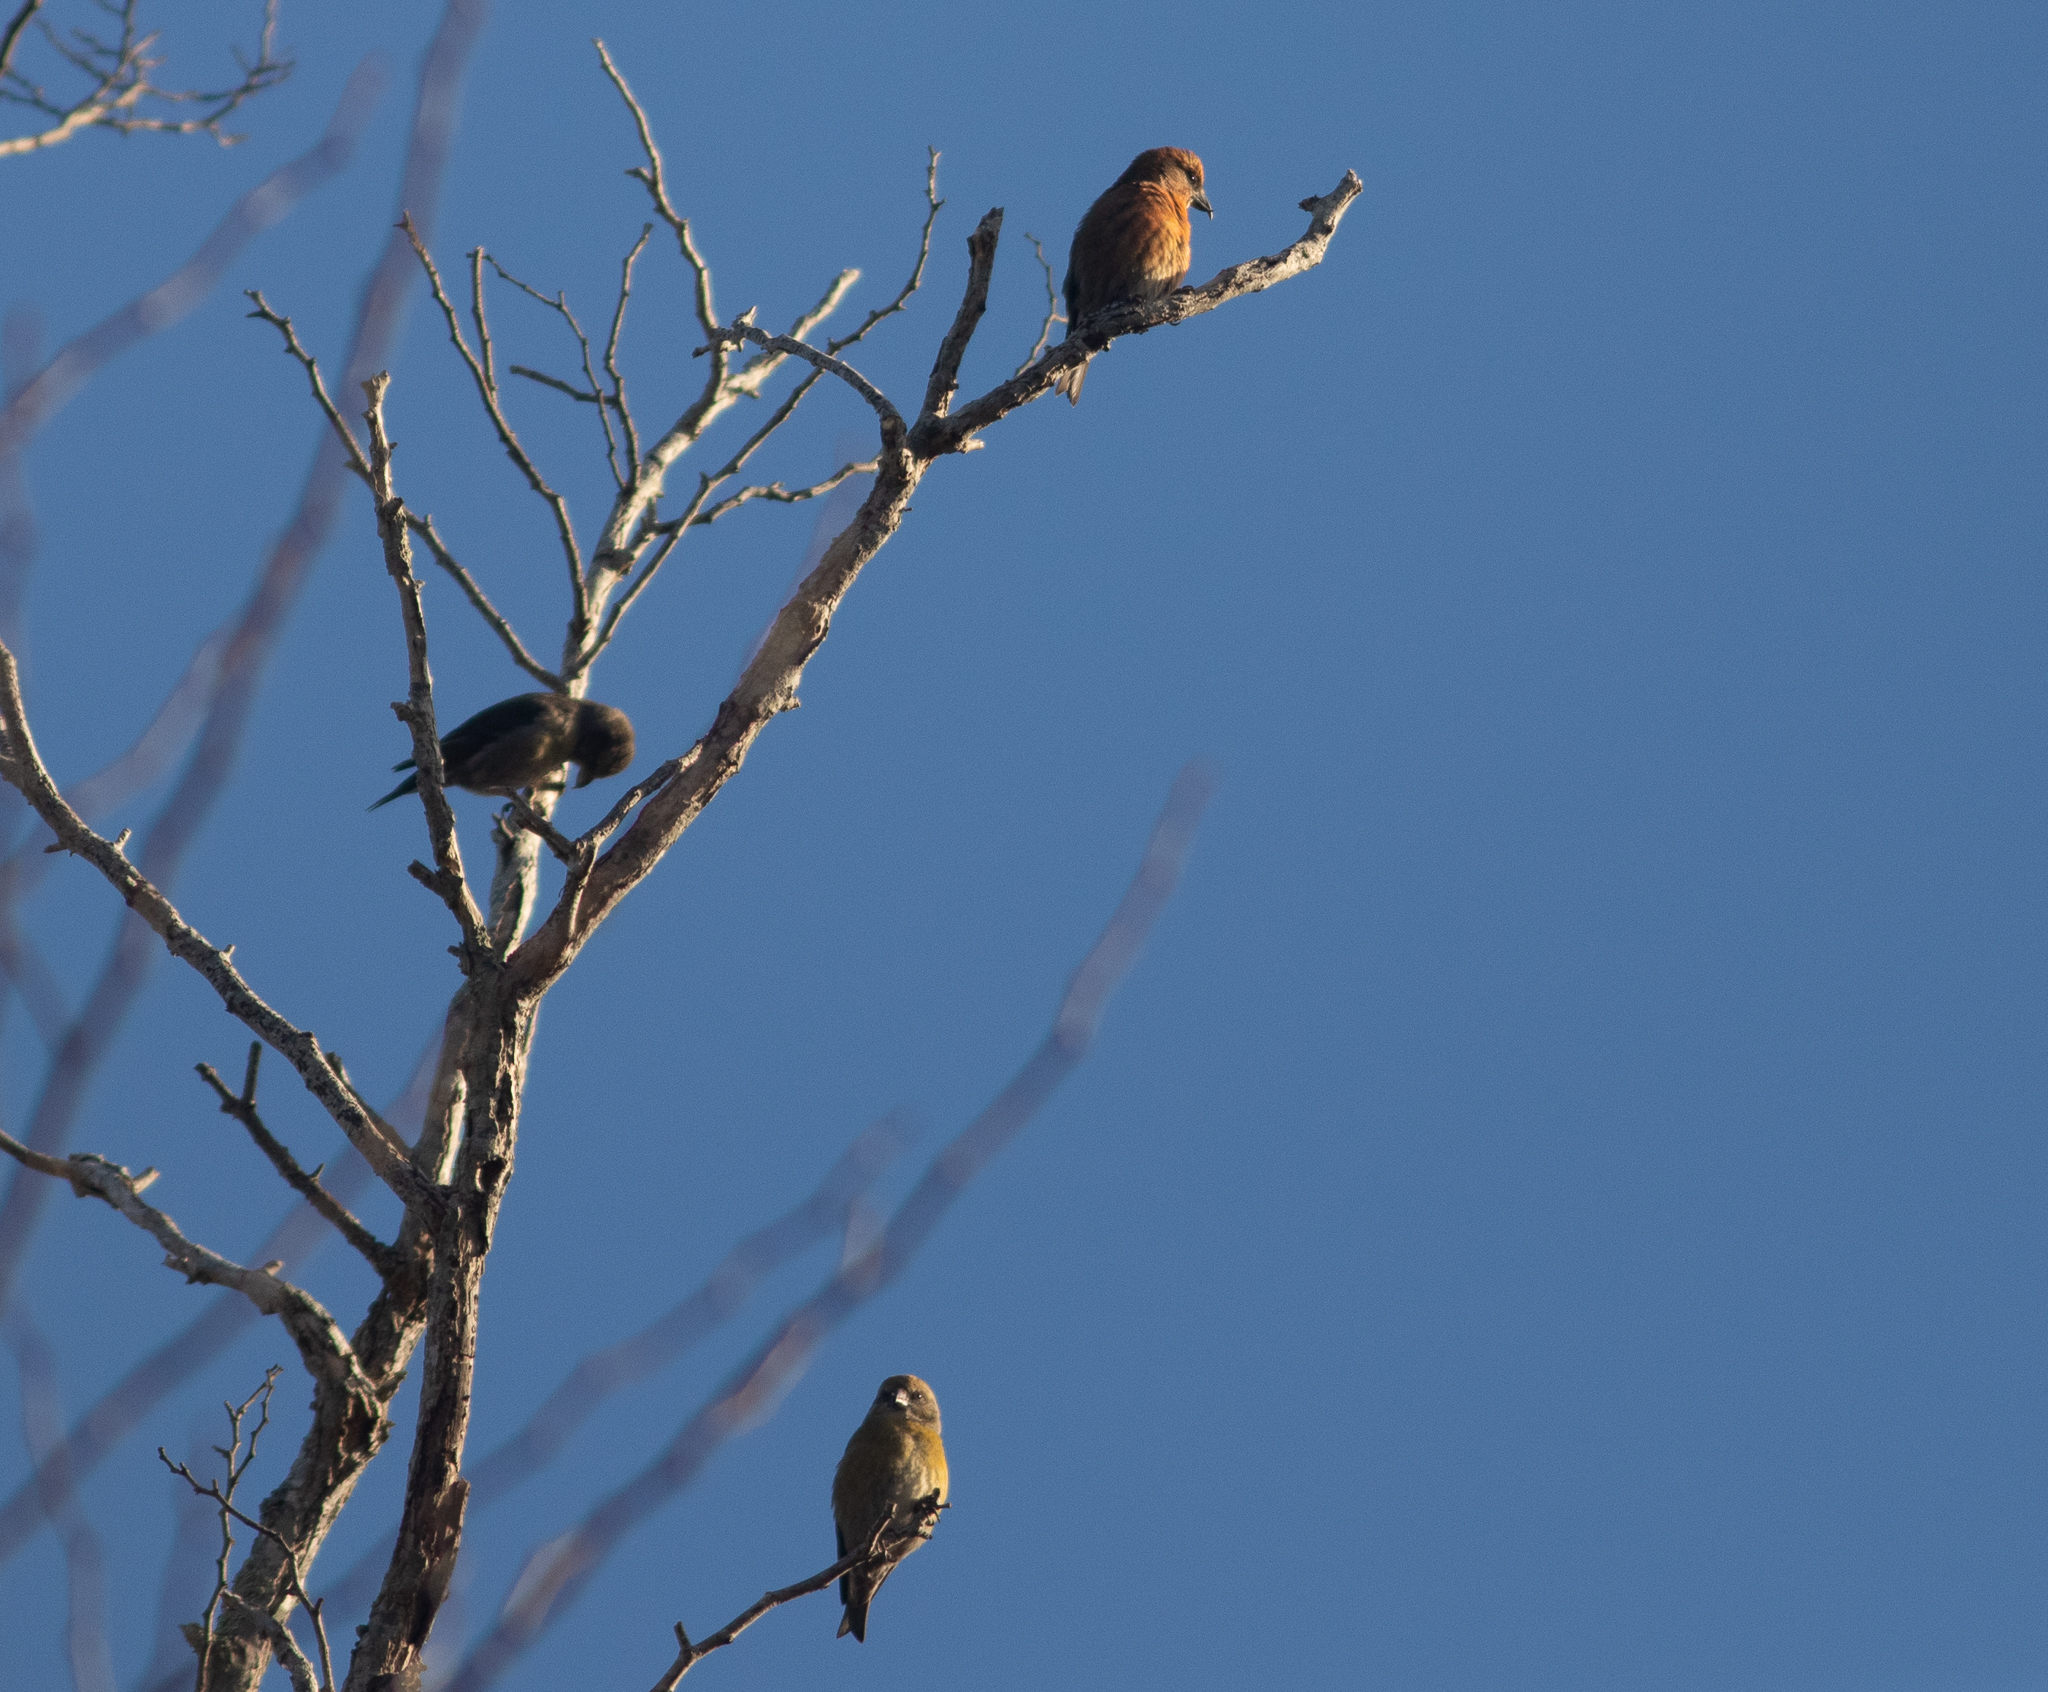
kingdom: Animalia
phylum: Chordata
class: Aves
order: Passeriformes
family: Fringillidae
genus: Loxia
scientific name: Loxia curvirostra
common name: Red crossbill
